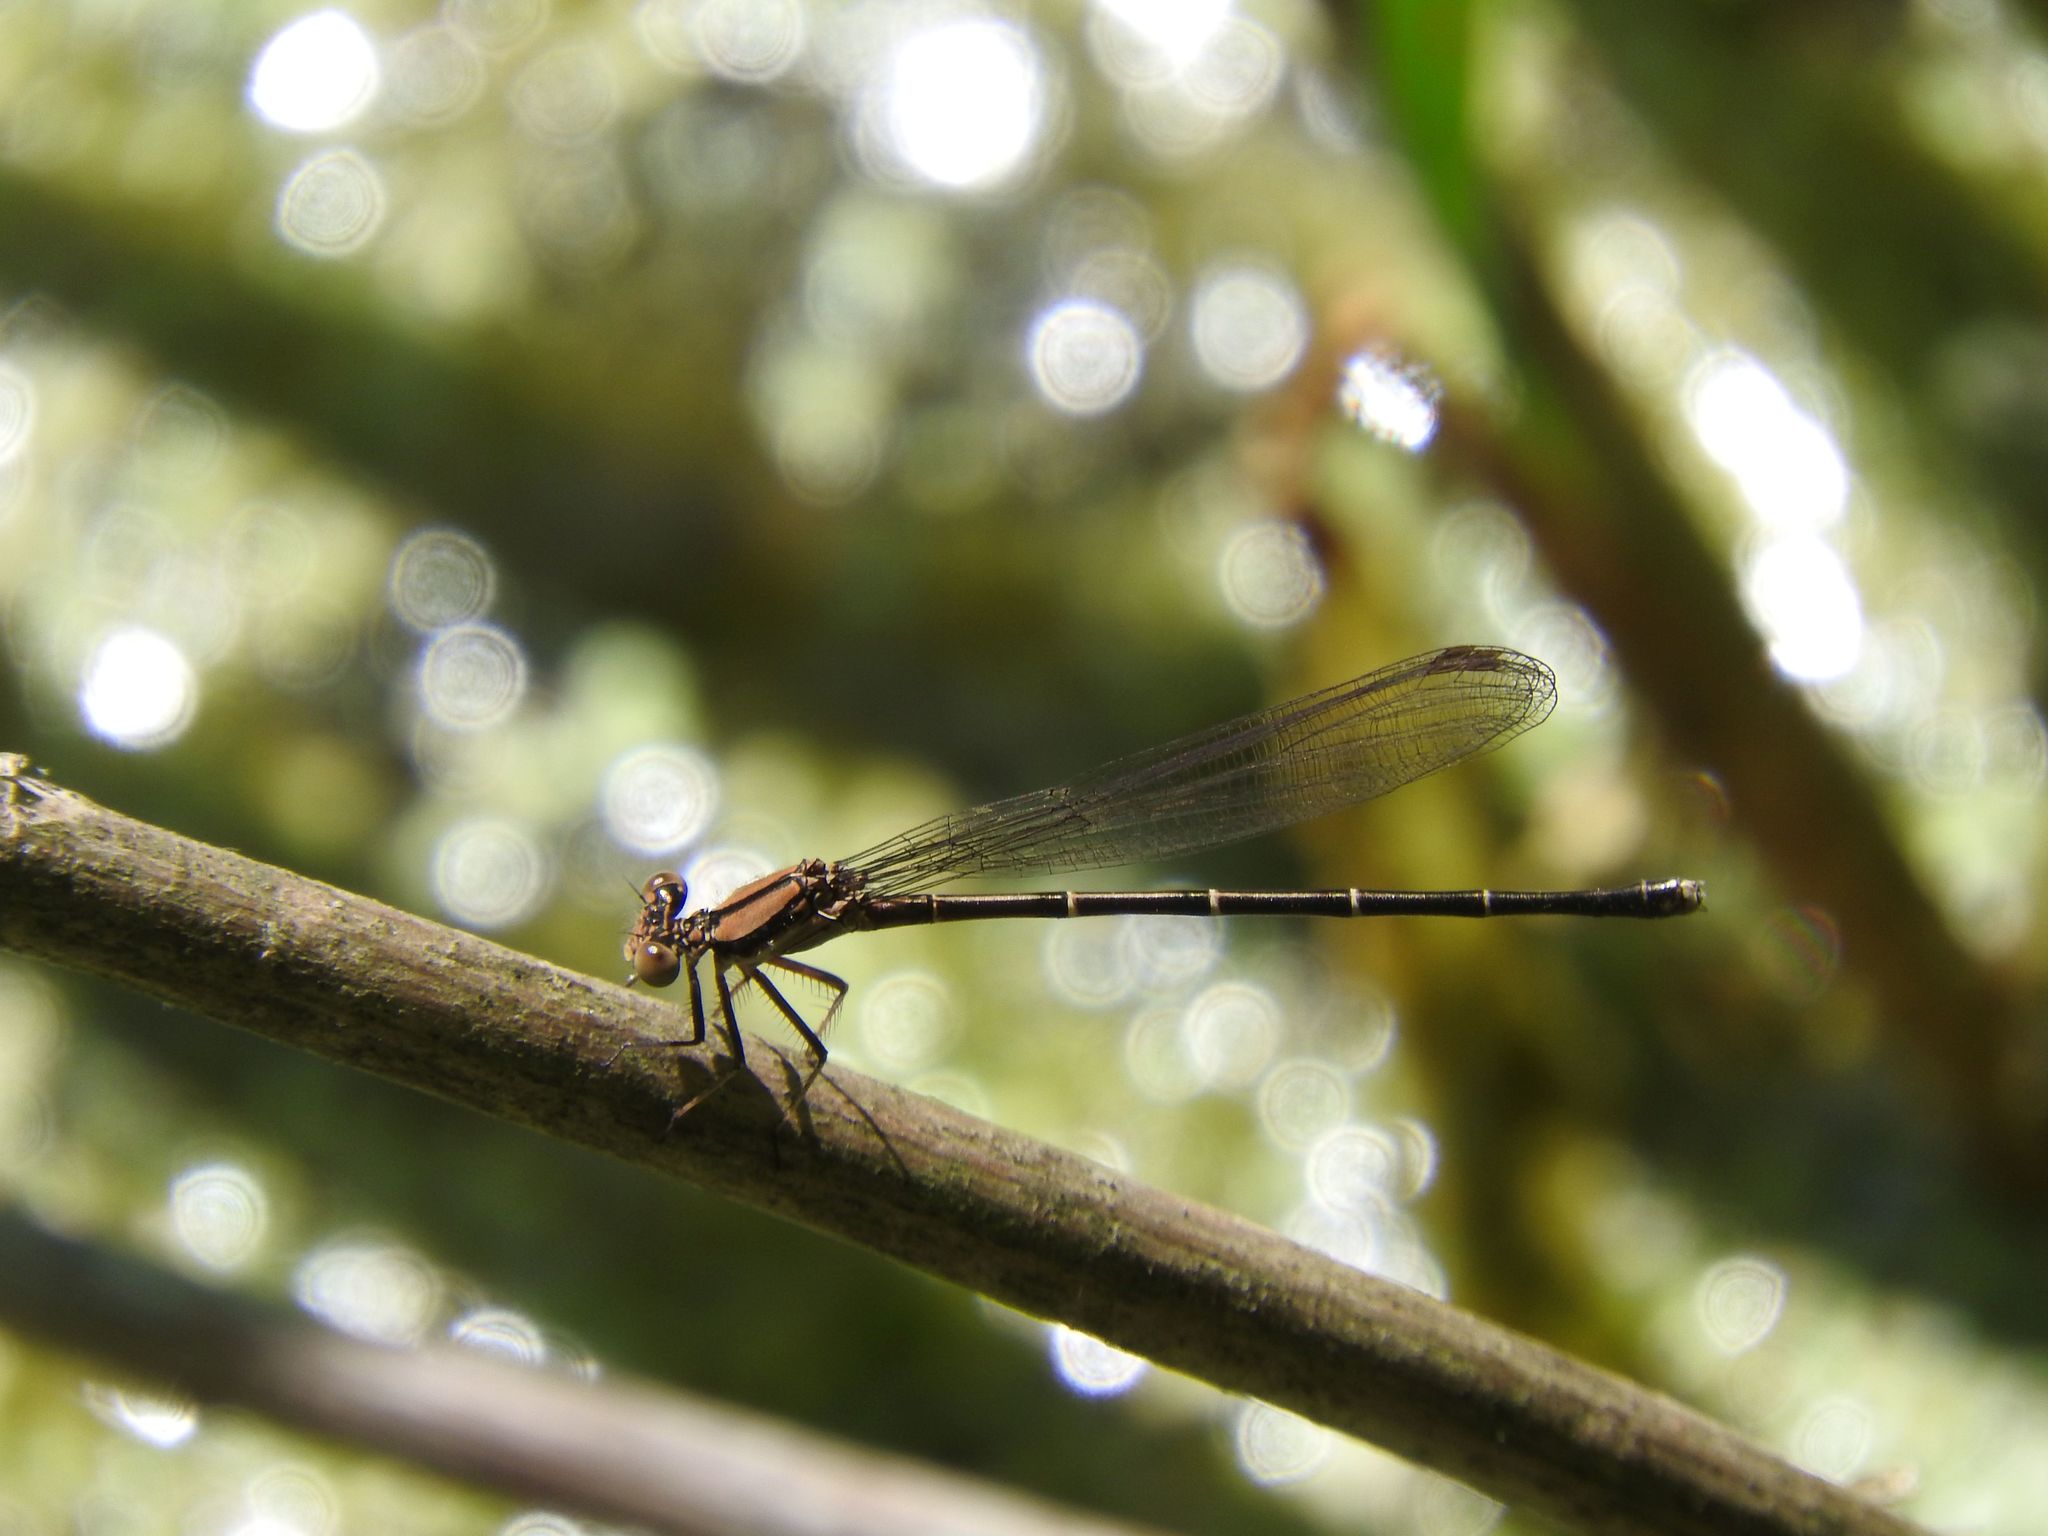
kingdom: Animalia
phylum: Arthropoda
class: Insecta
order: Odonata
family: Coenagrionidae
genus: Argia
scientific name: Argia tibialis
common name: Blue-tipped dancer
